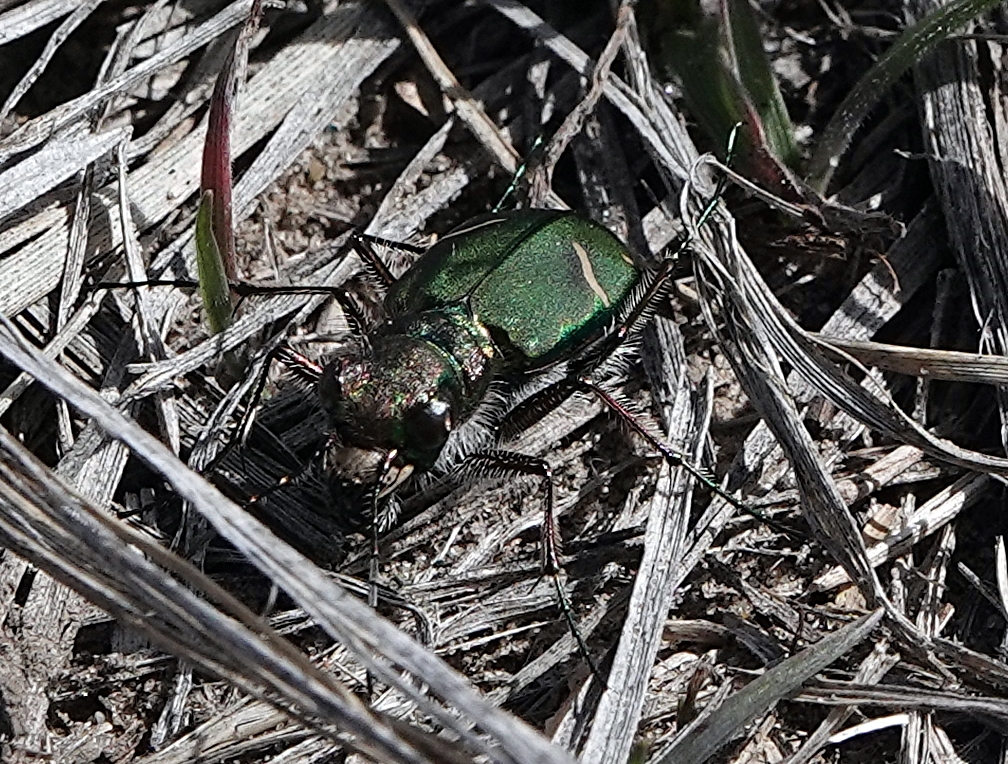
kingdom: Animalia
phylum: Arthropoda
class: Insecta
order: Coleoptera
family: Carabidae
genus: Cicindela
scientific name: Cicindela purpurea
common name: Cow path tiger beetle
